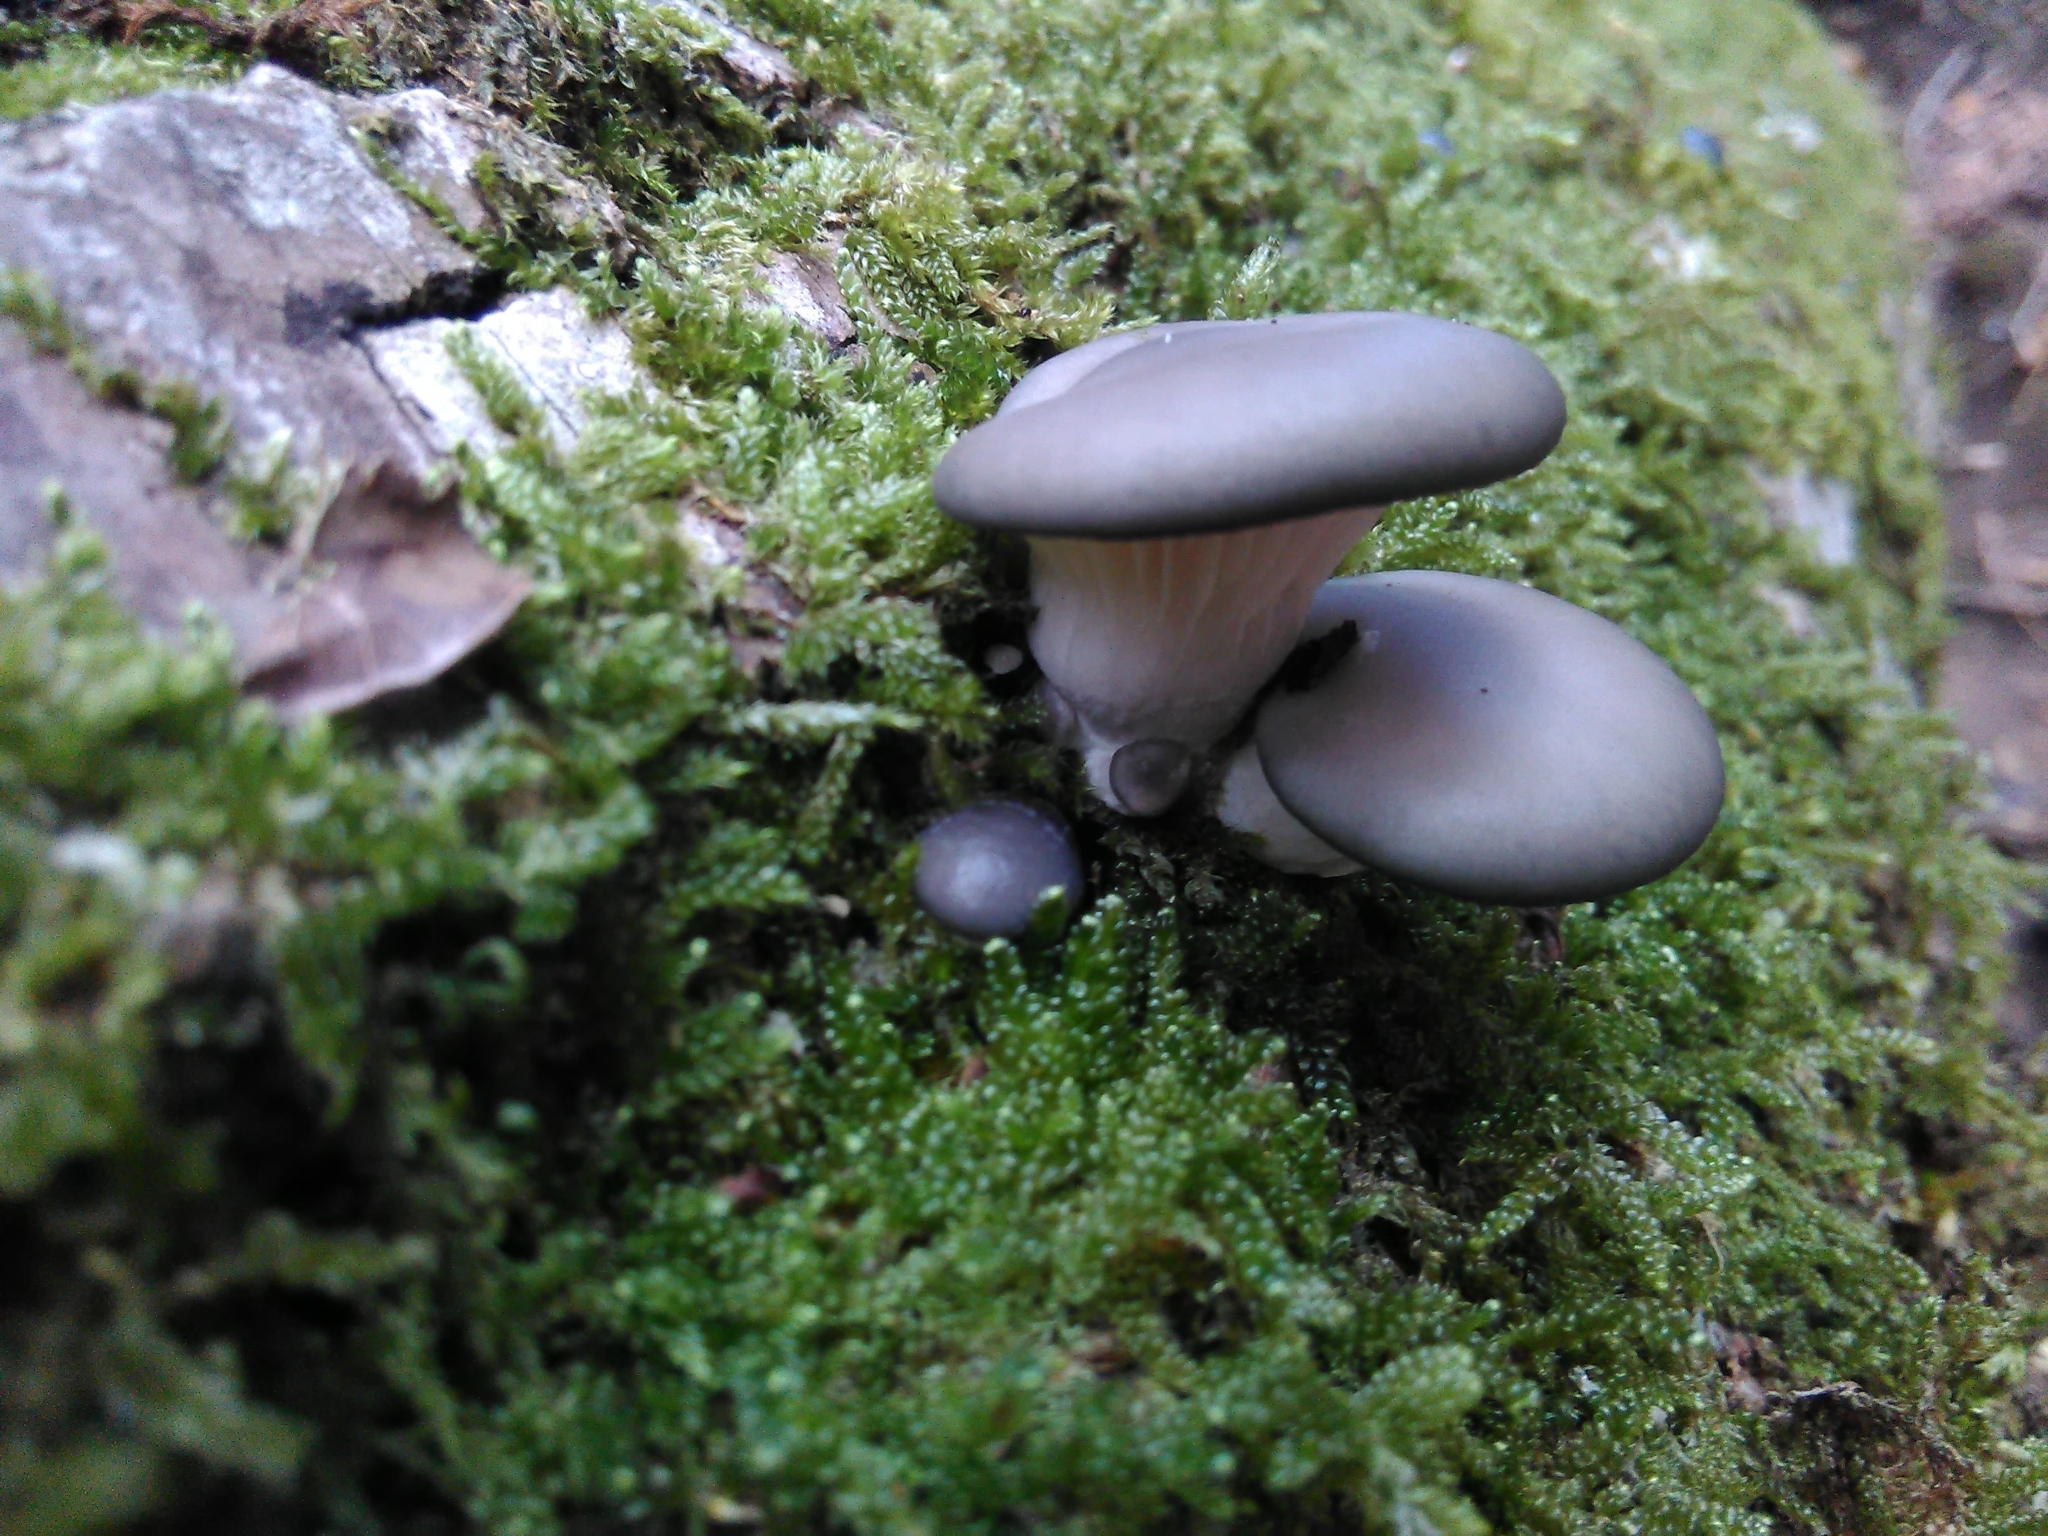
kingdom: Fungi
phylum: Basidiomycota
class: Agaricomycetes
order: Agaricales
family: Pleurotaceae
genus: Pleurotus
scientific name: Pleurotus ostreatus
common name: Oyster mushroom
